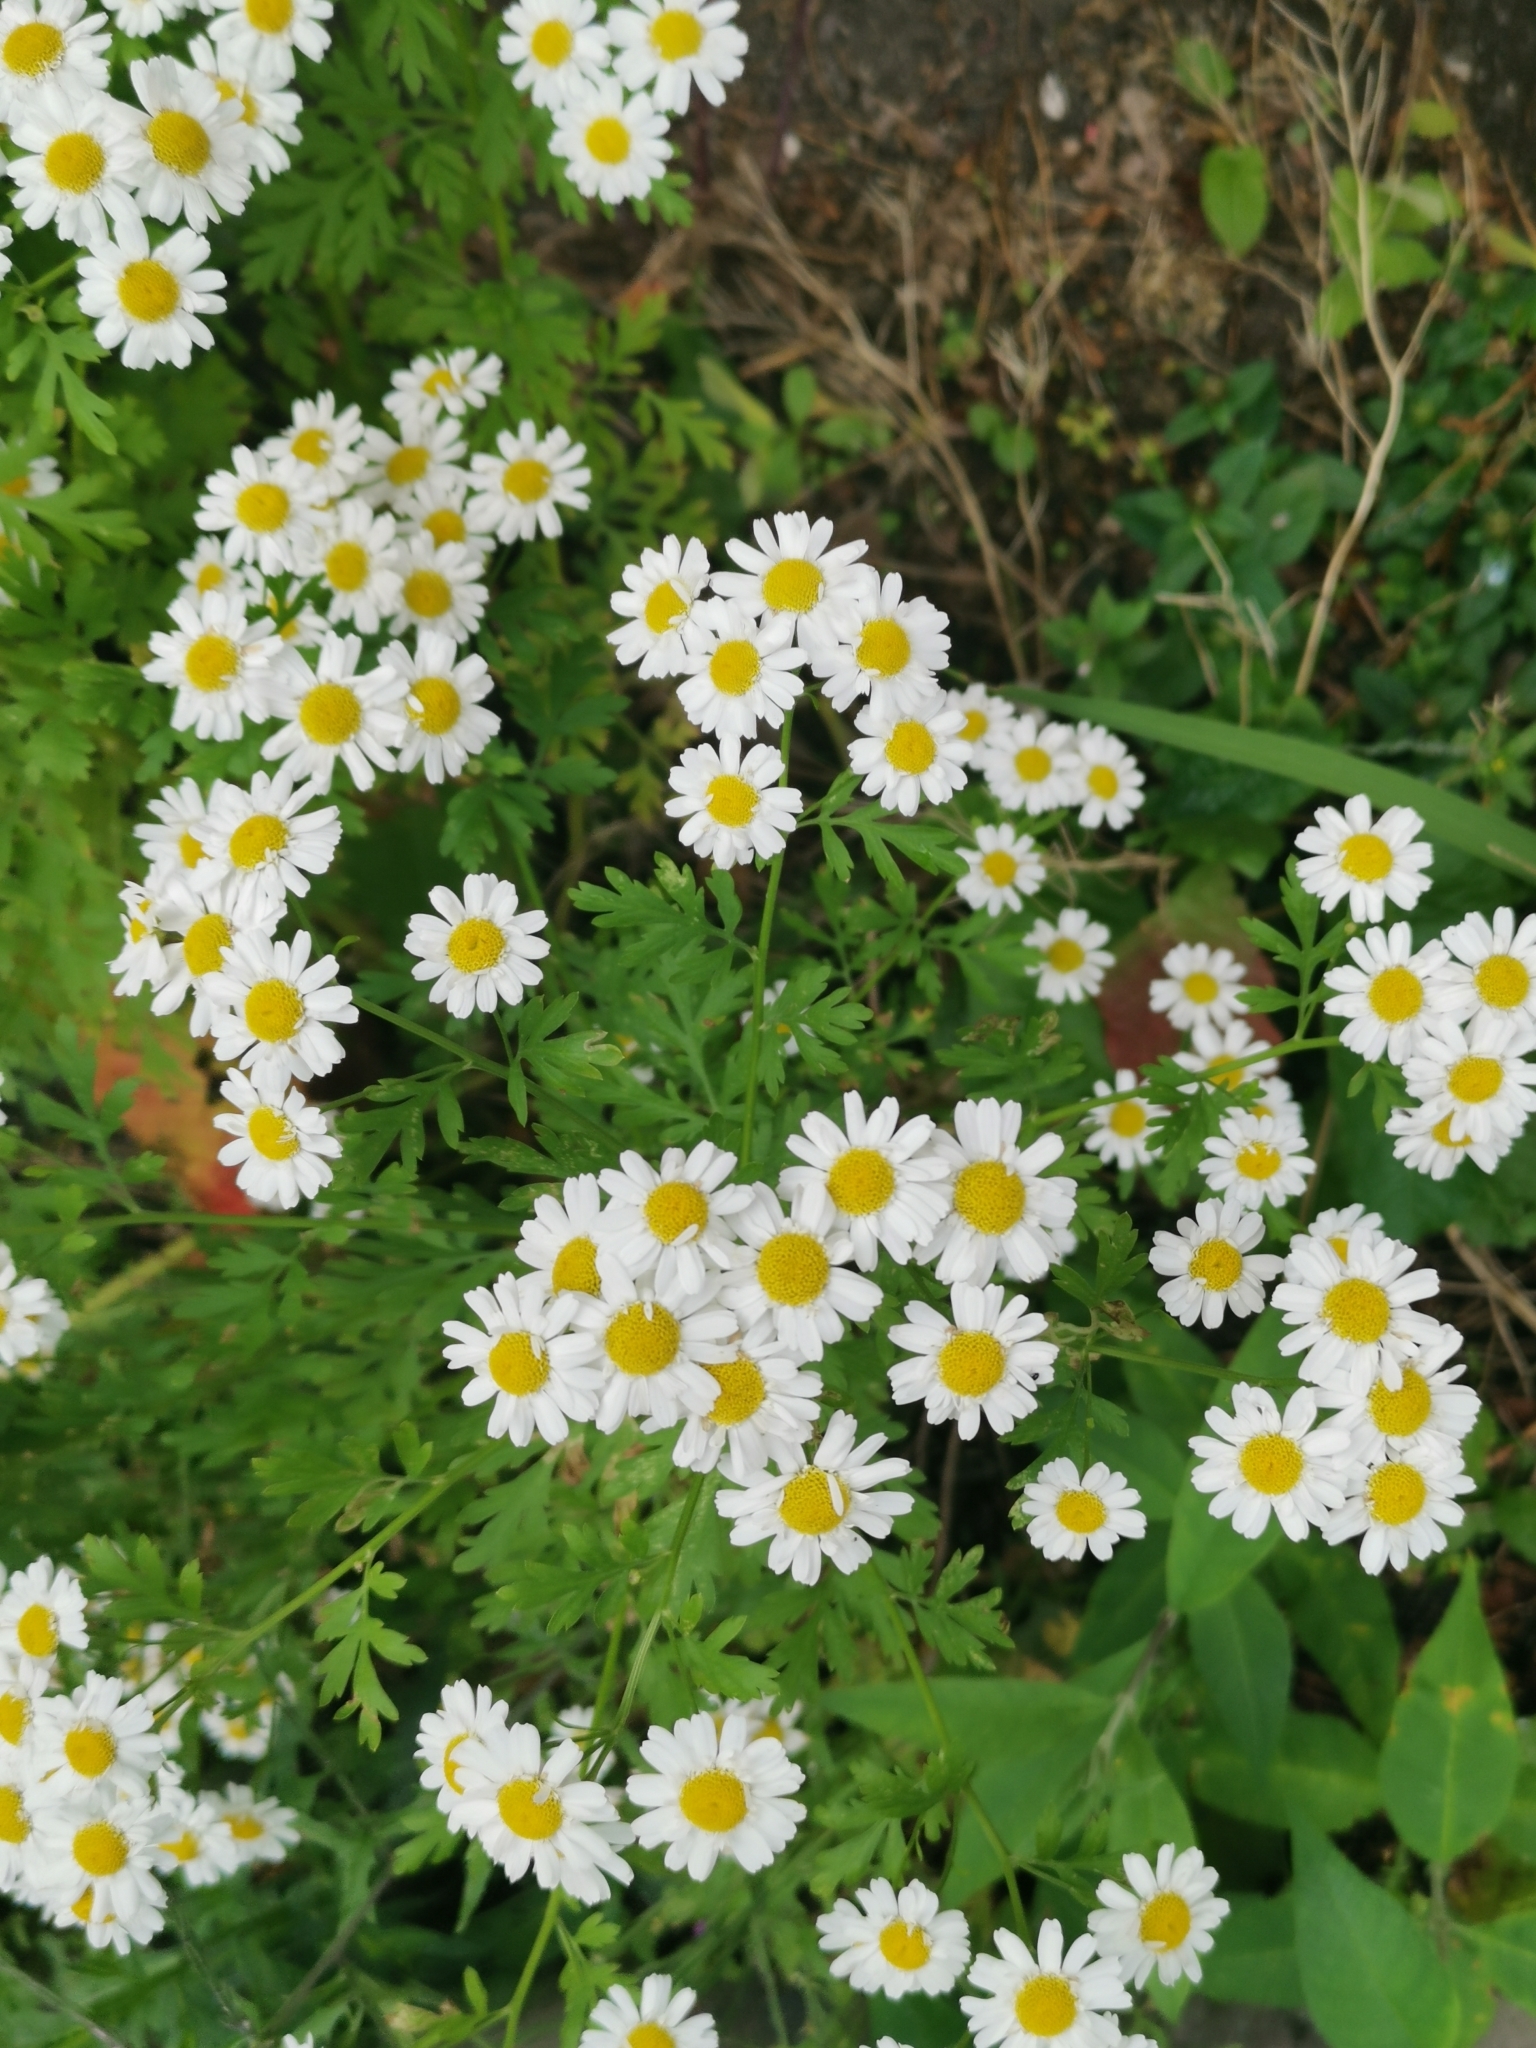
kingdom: Plantae
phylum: Tracheophyta
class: Magnoliopsida
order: Asterales
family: Asteraceae
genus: Tanacetum
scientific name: Tanacetum parthenium
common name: Feverfew
